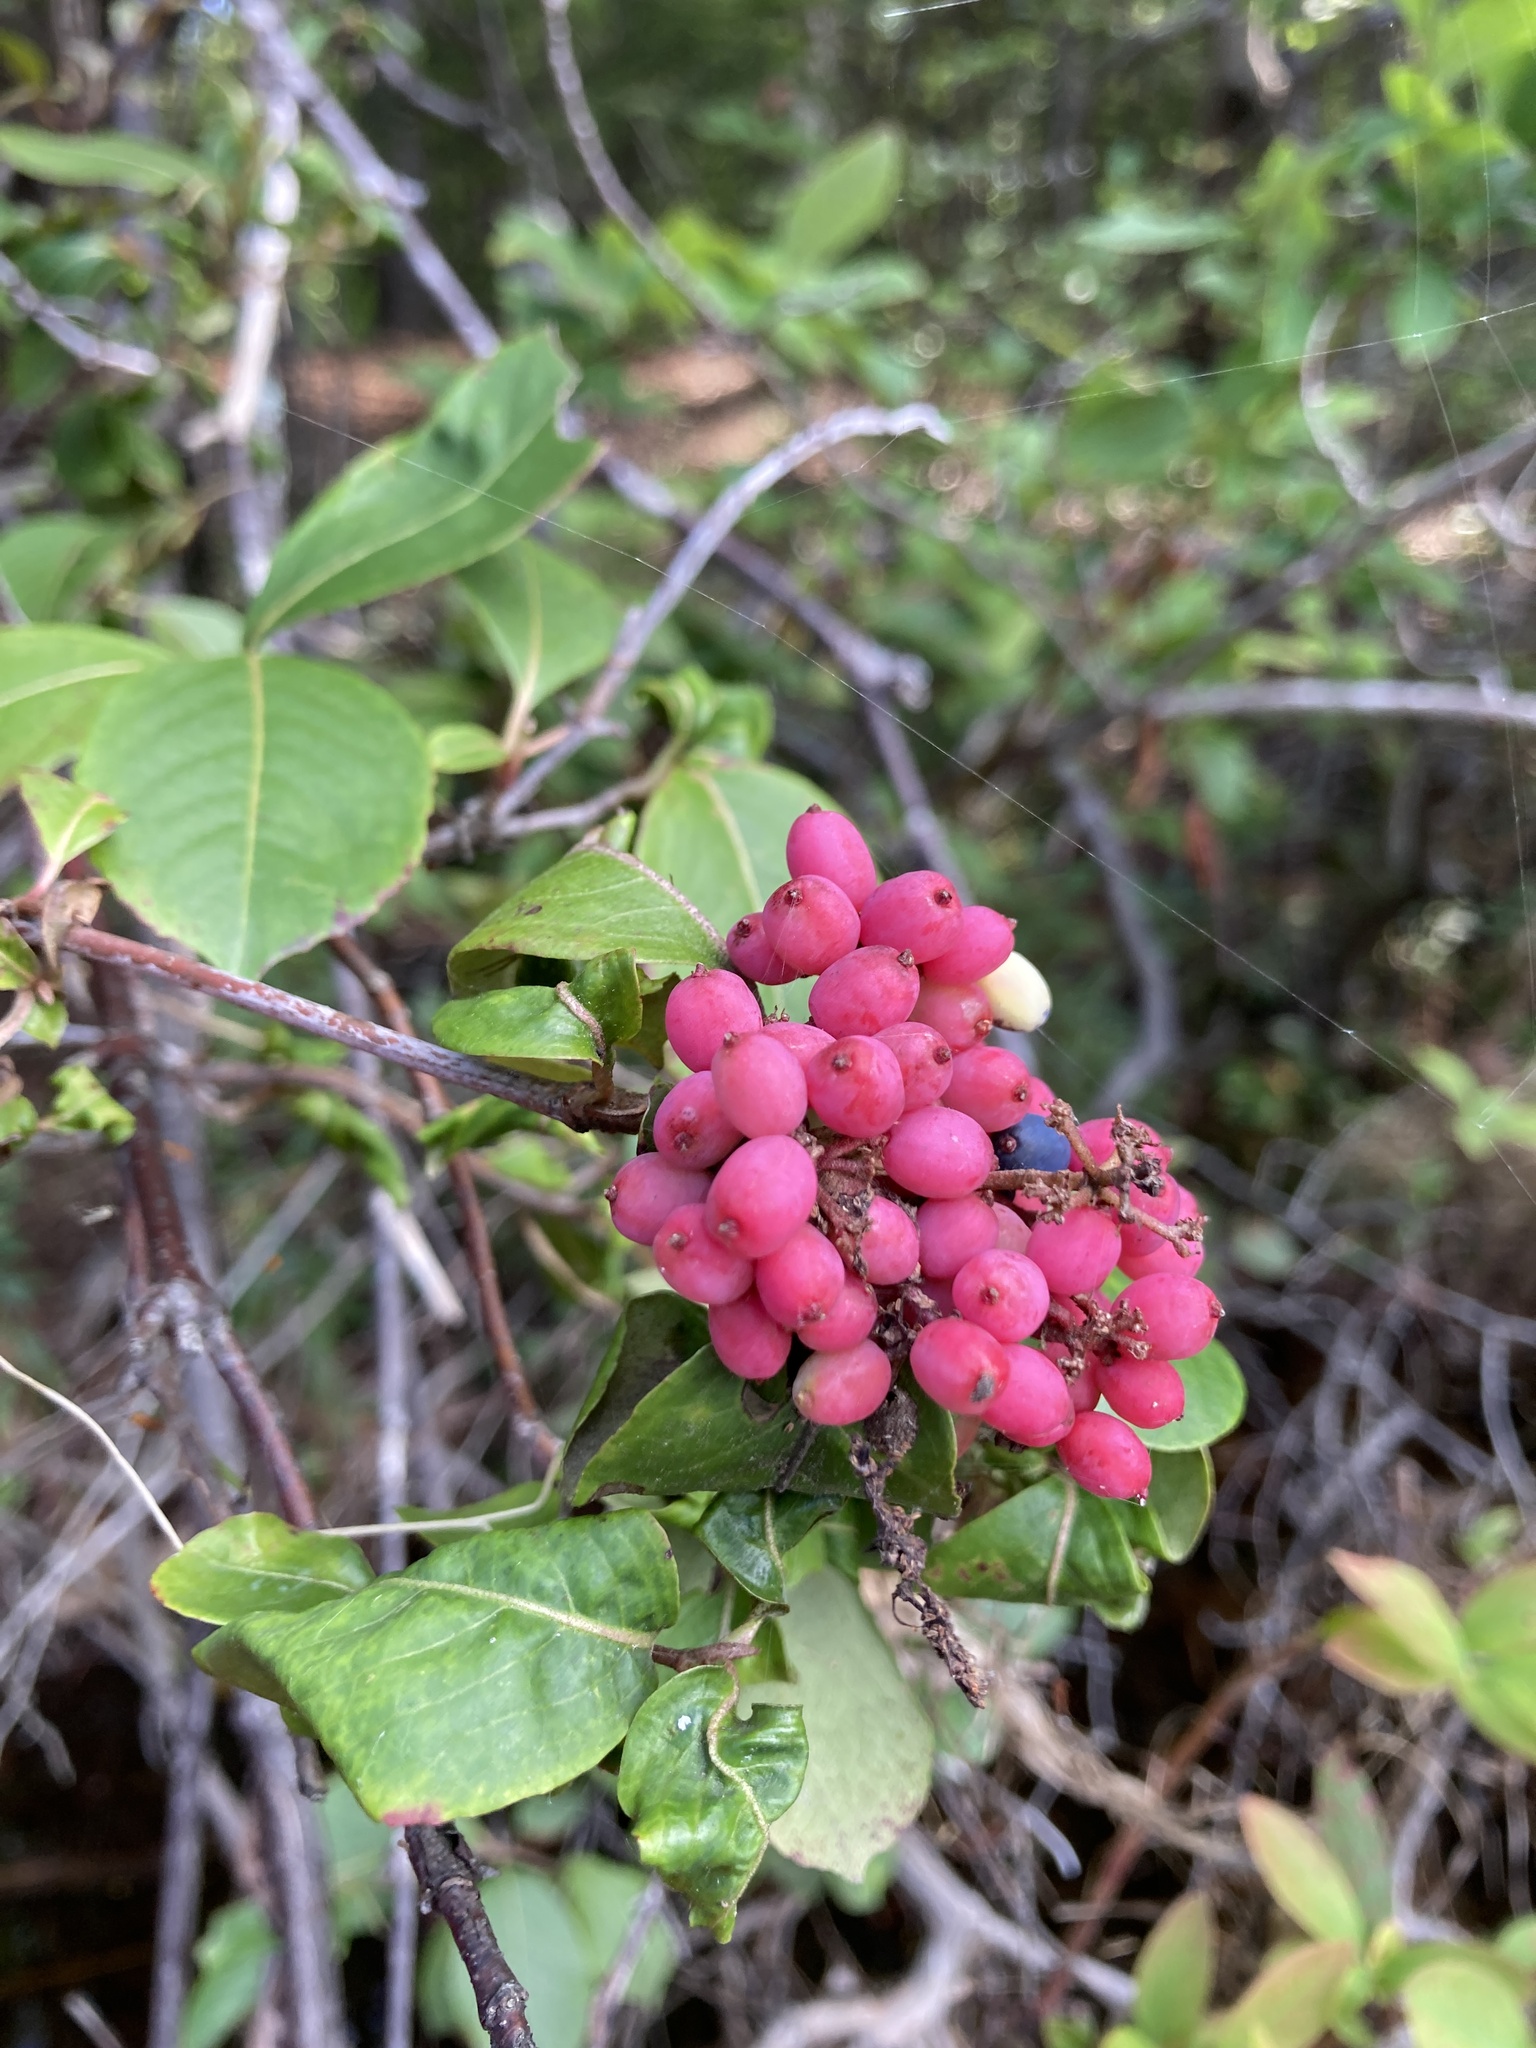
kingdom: Plantae
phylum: Tracheophyta
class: Magnoliopsida
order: Dipsacales
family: Viburnaceae
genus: Viburnum
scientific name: Viburnum cassinoides
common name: Swamp haw
